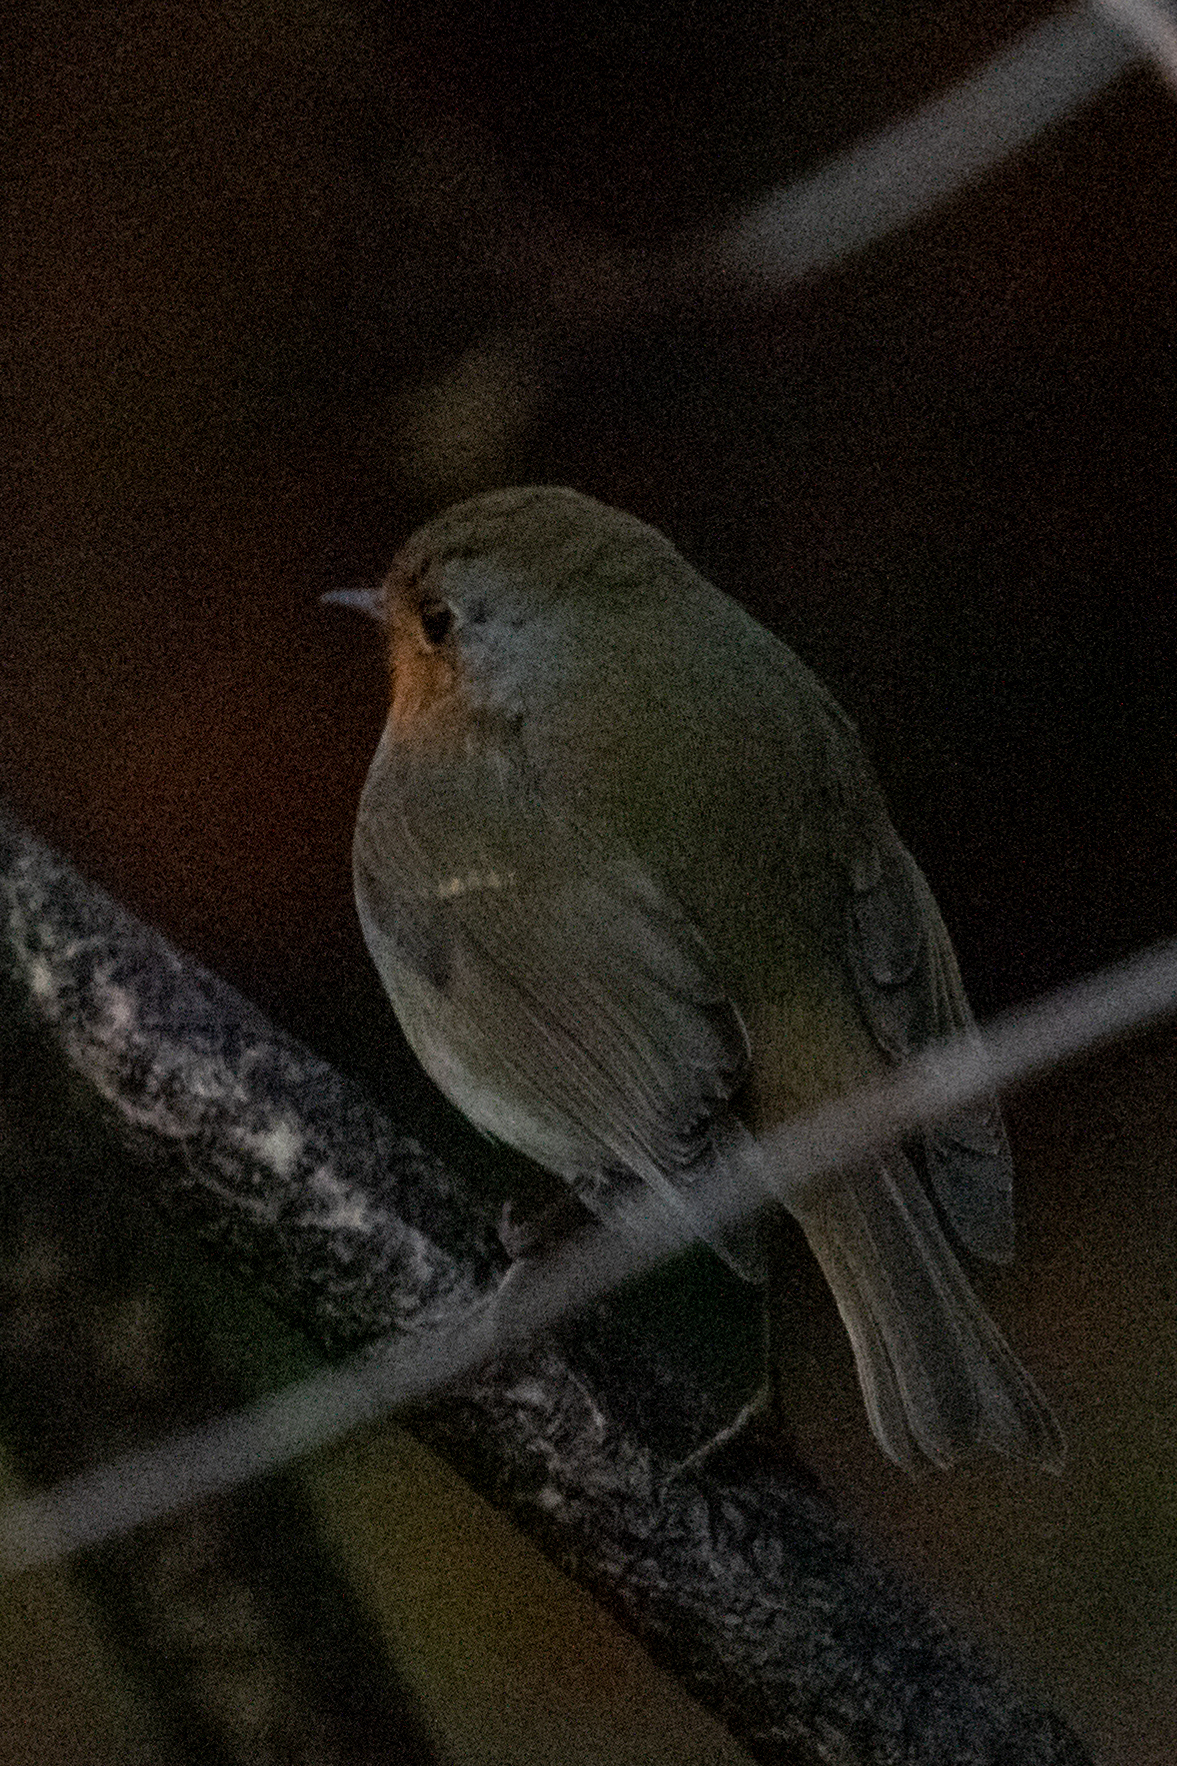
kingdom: Animalia
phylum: Chordata
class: Aves
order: Passeriformes
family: Muscicapidae
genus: Erithacus
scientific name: Erithacus rubecula
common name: European robin
